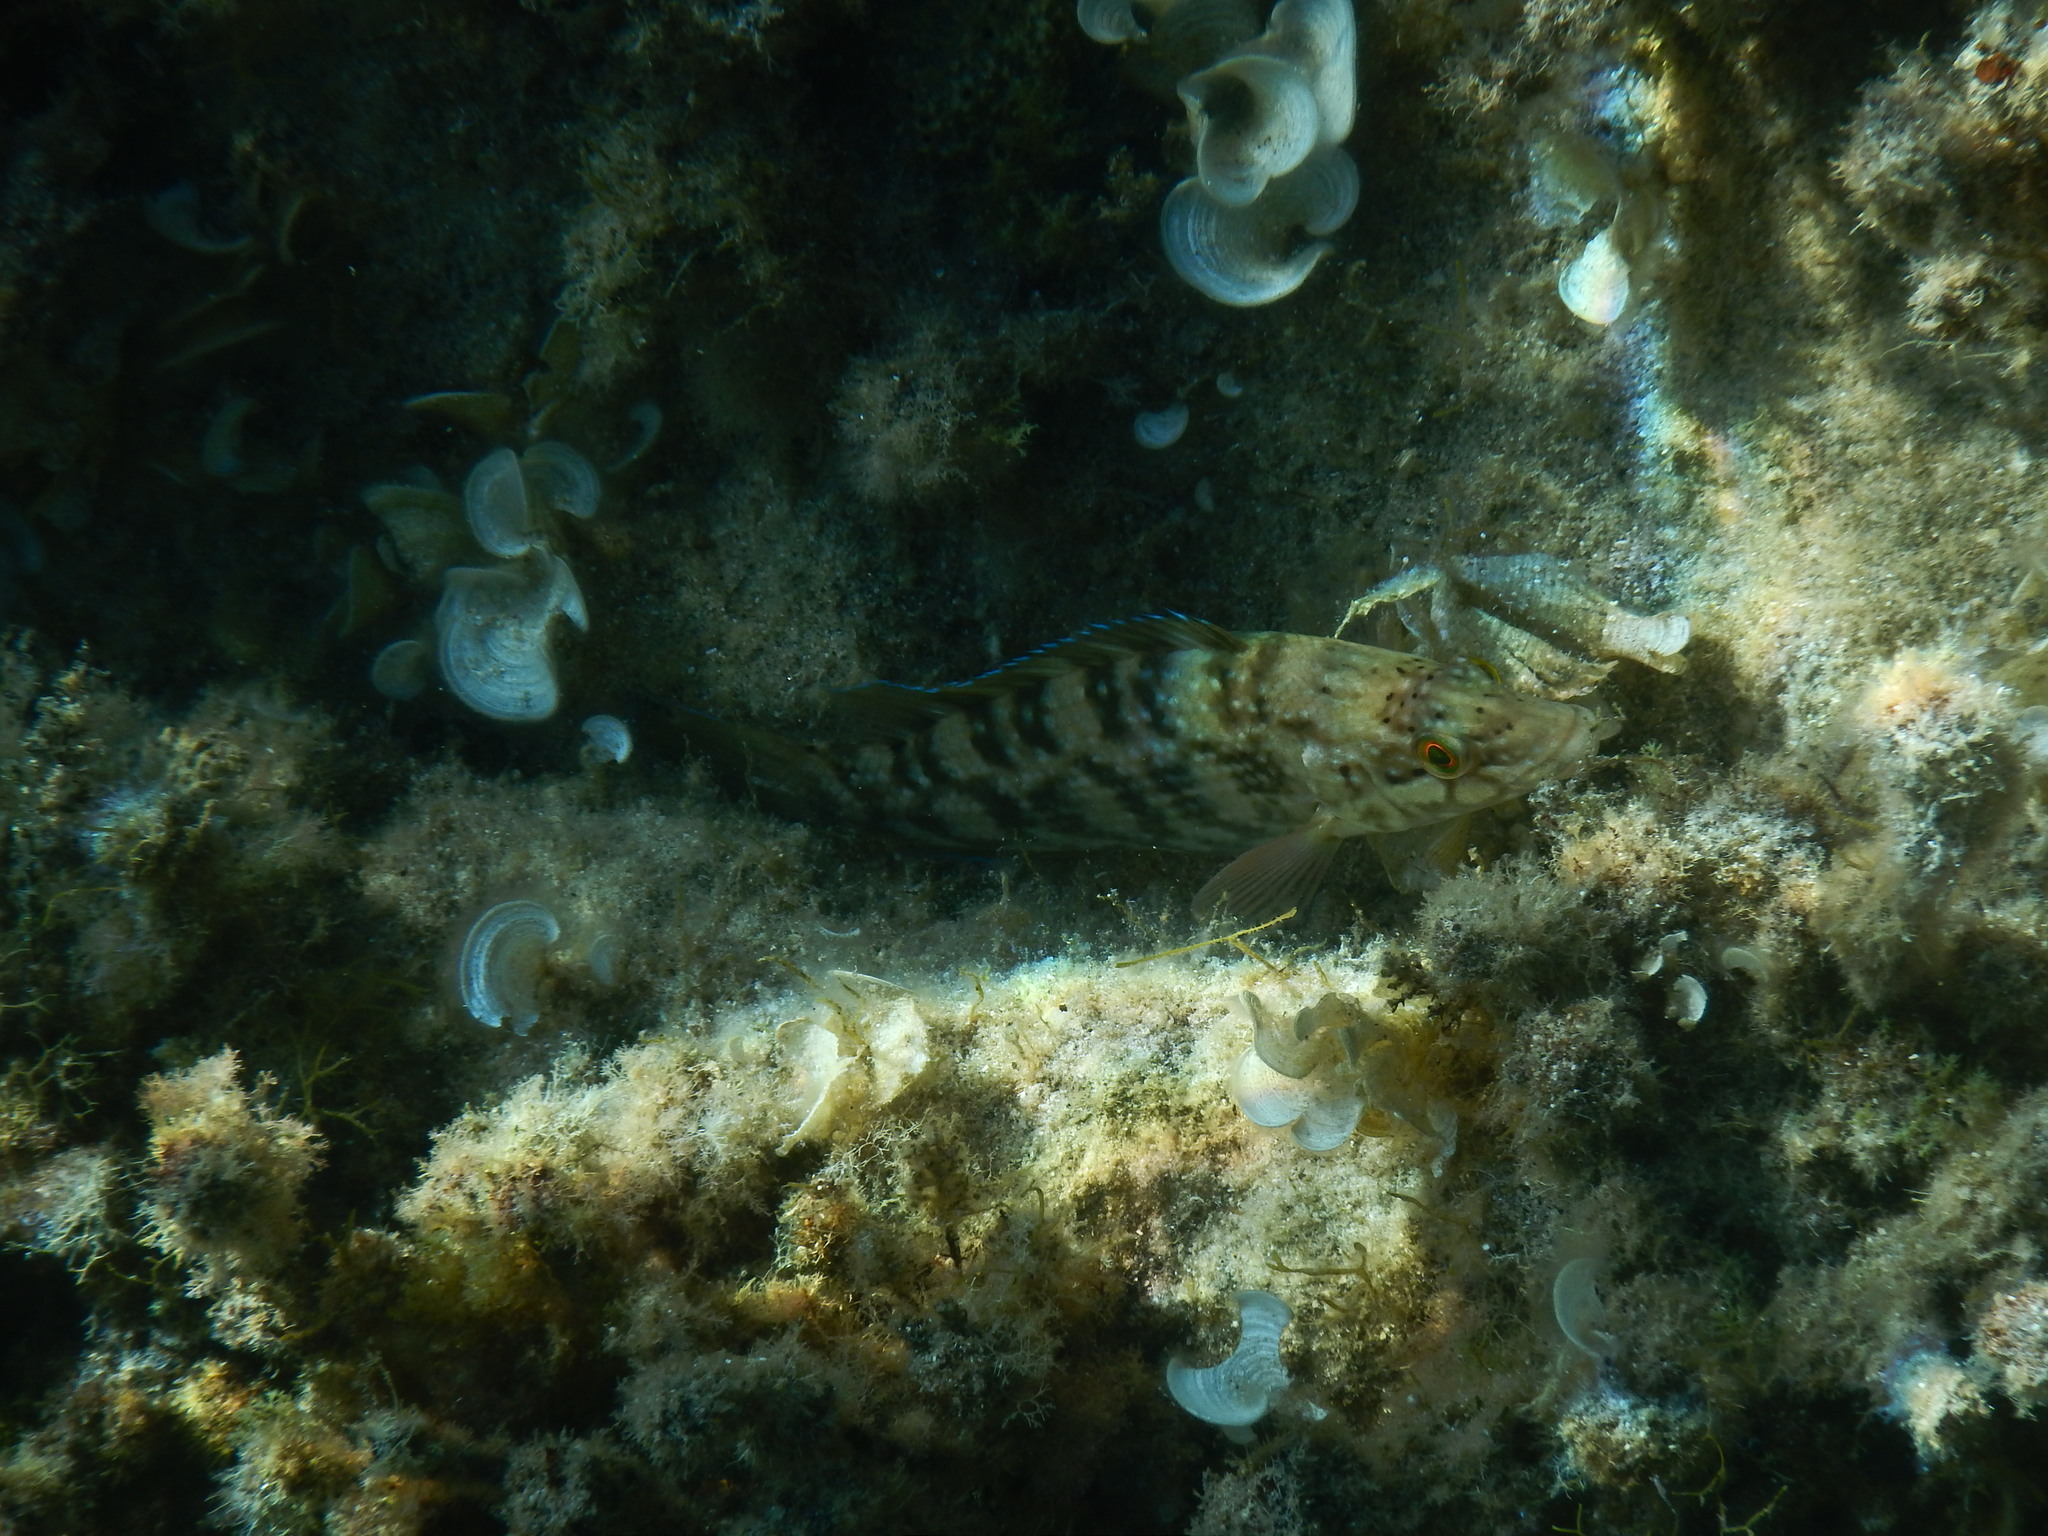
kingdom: Animalia
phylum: Chordata
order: Perciformes
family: Labridae
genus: Labrus
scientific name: Labrus merula
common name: Brown wrasse
